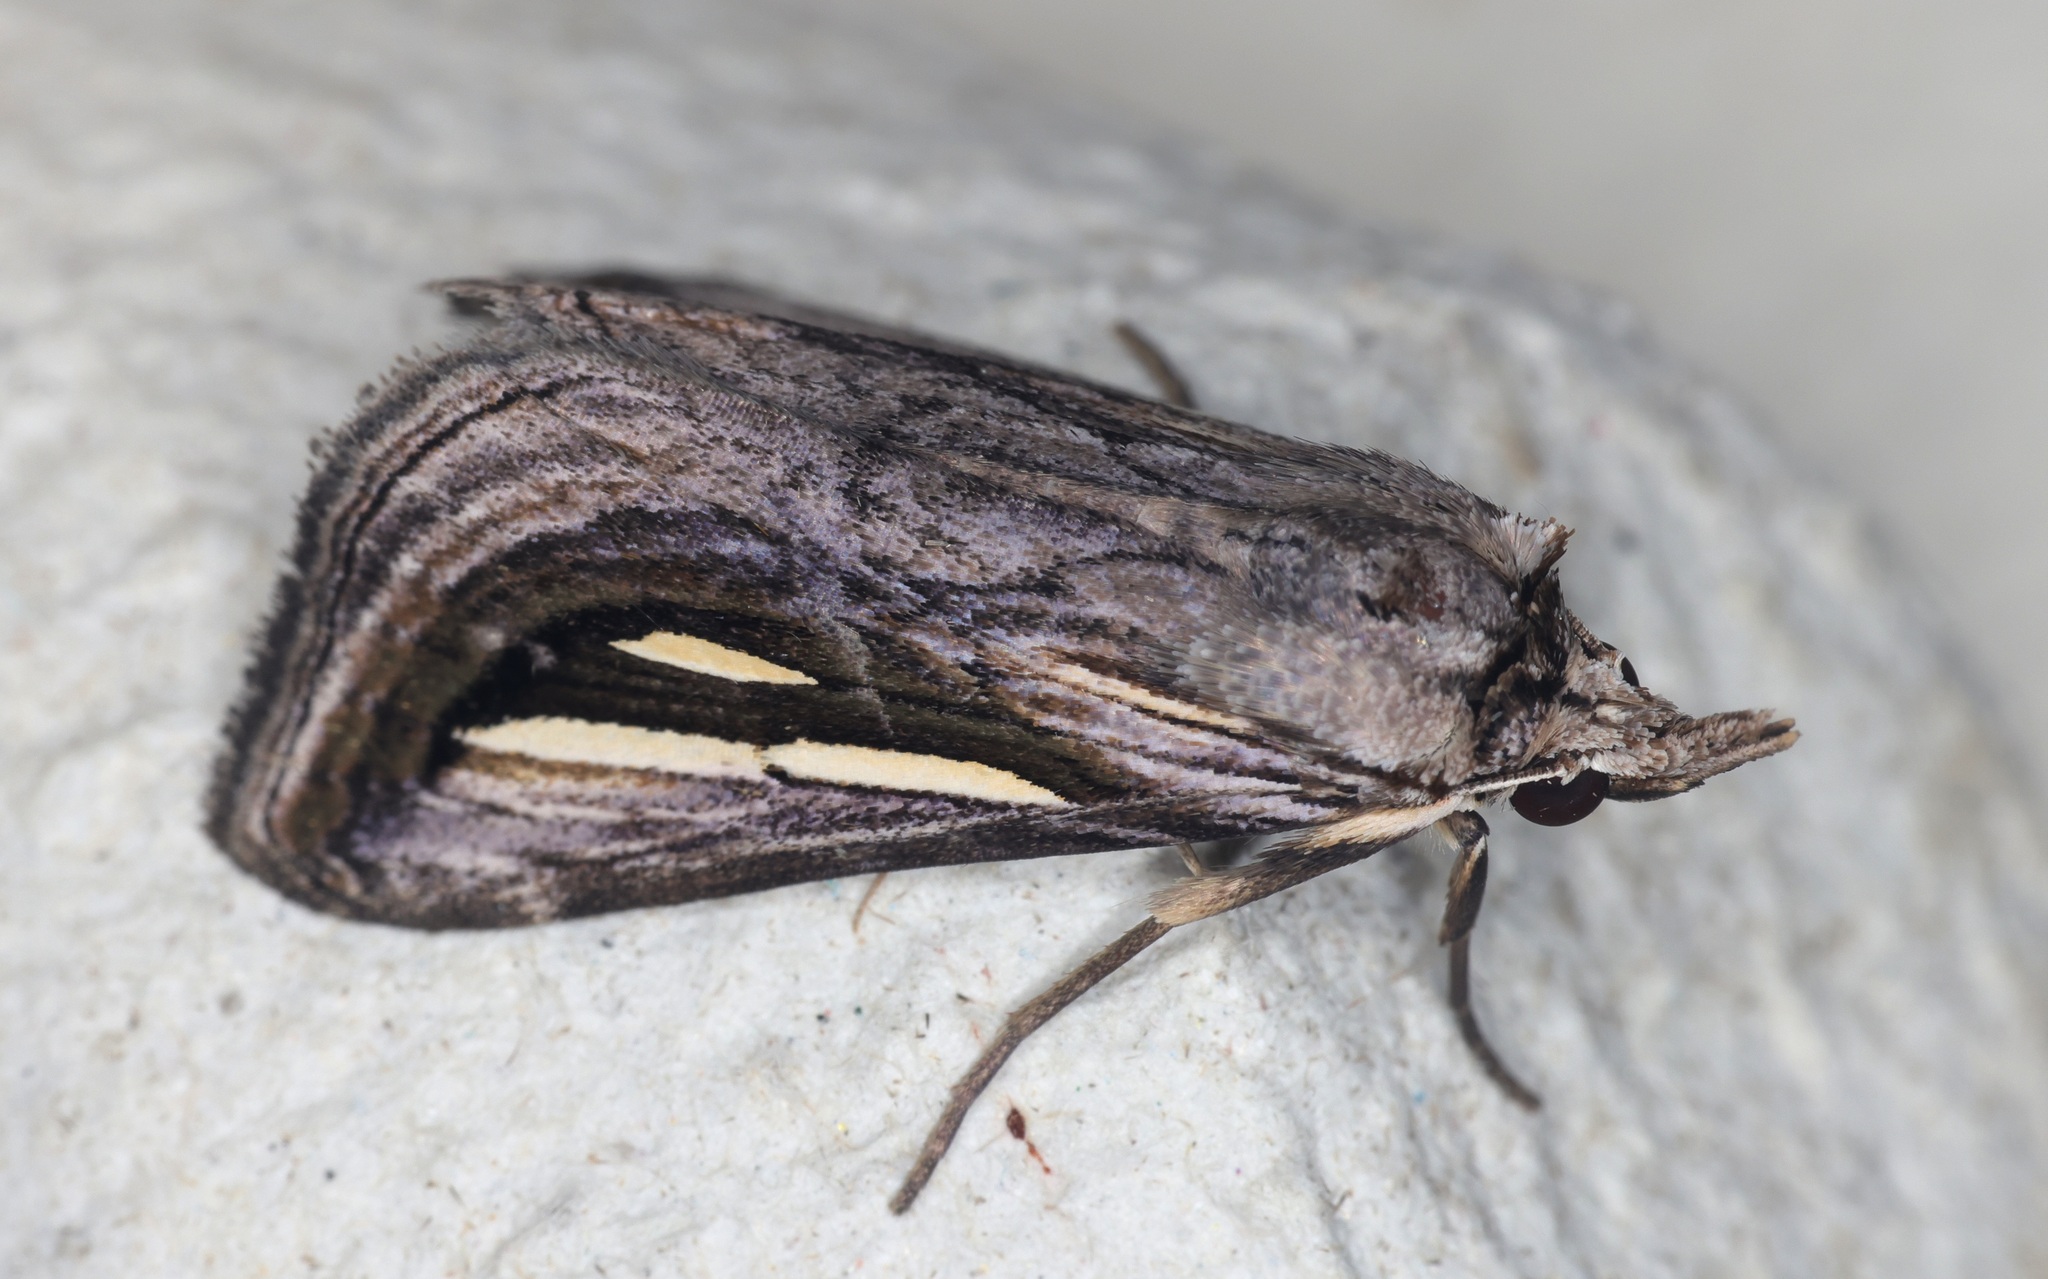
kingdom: Animalia
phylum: Arthropoda
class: Insecta
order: Lepidoptera
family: Erebidae
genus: Schistorhynx
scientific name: Schistorhynx argentistriga
